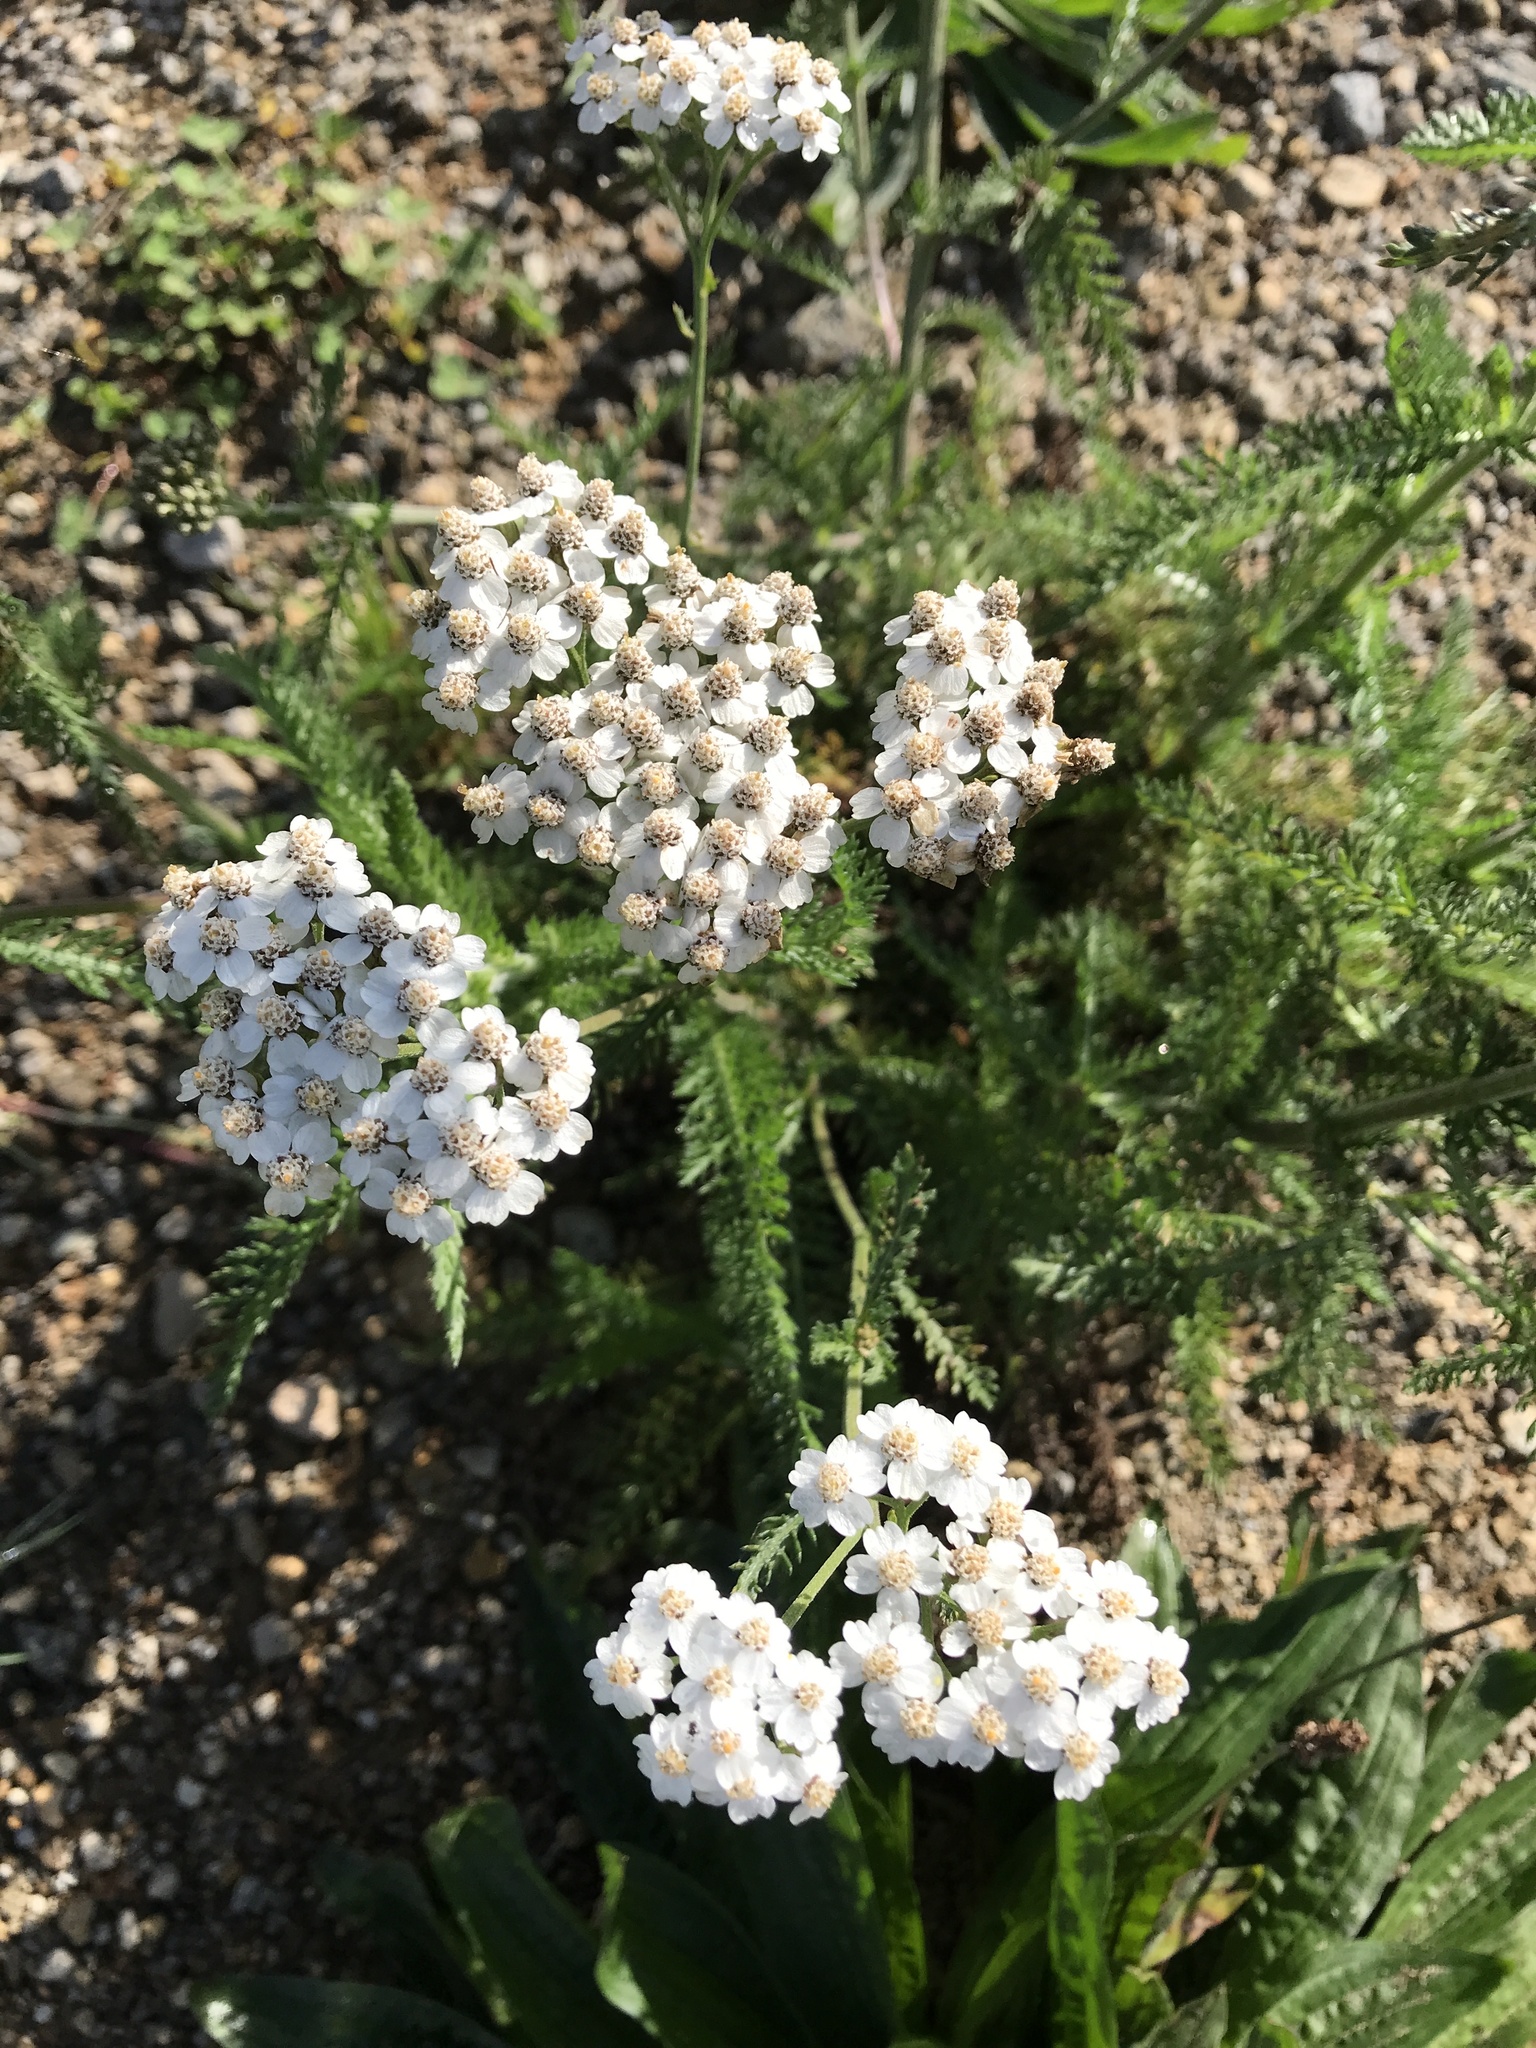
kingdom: Plantae
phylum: Tracheophyta
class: Magnoliopsida
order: Asterales
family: Asteraceae
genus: Achillea
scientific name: Achillea millefolium
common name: Yarrow
